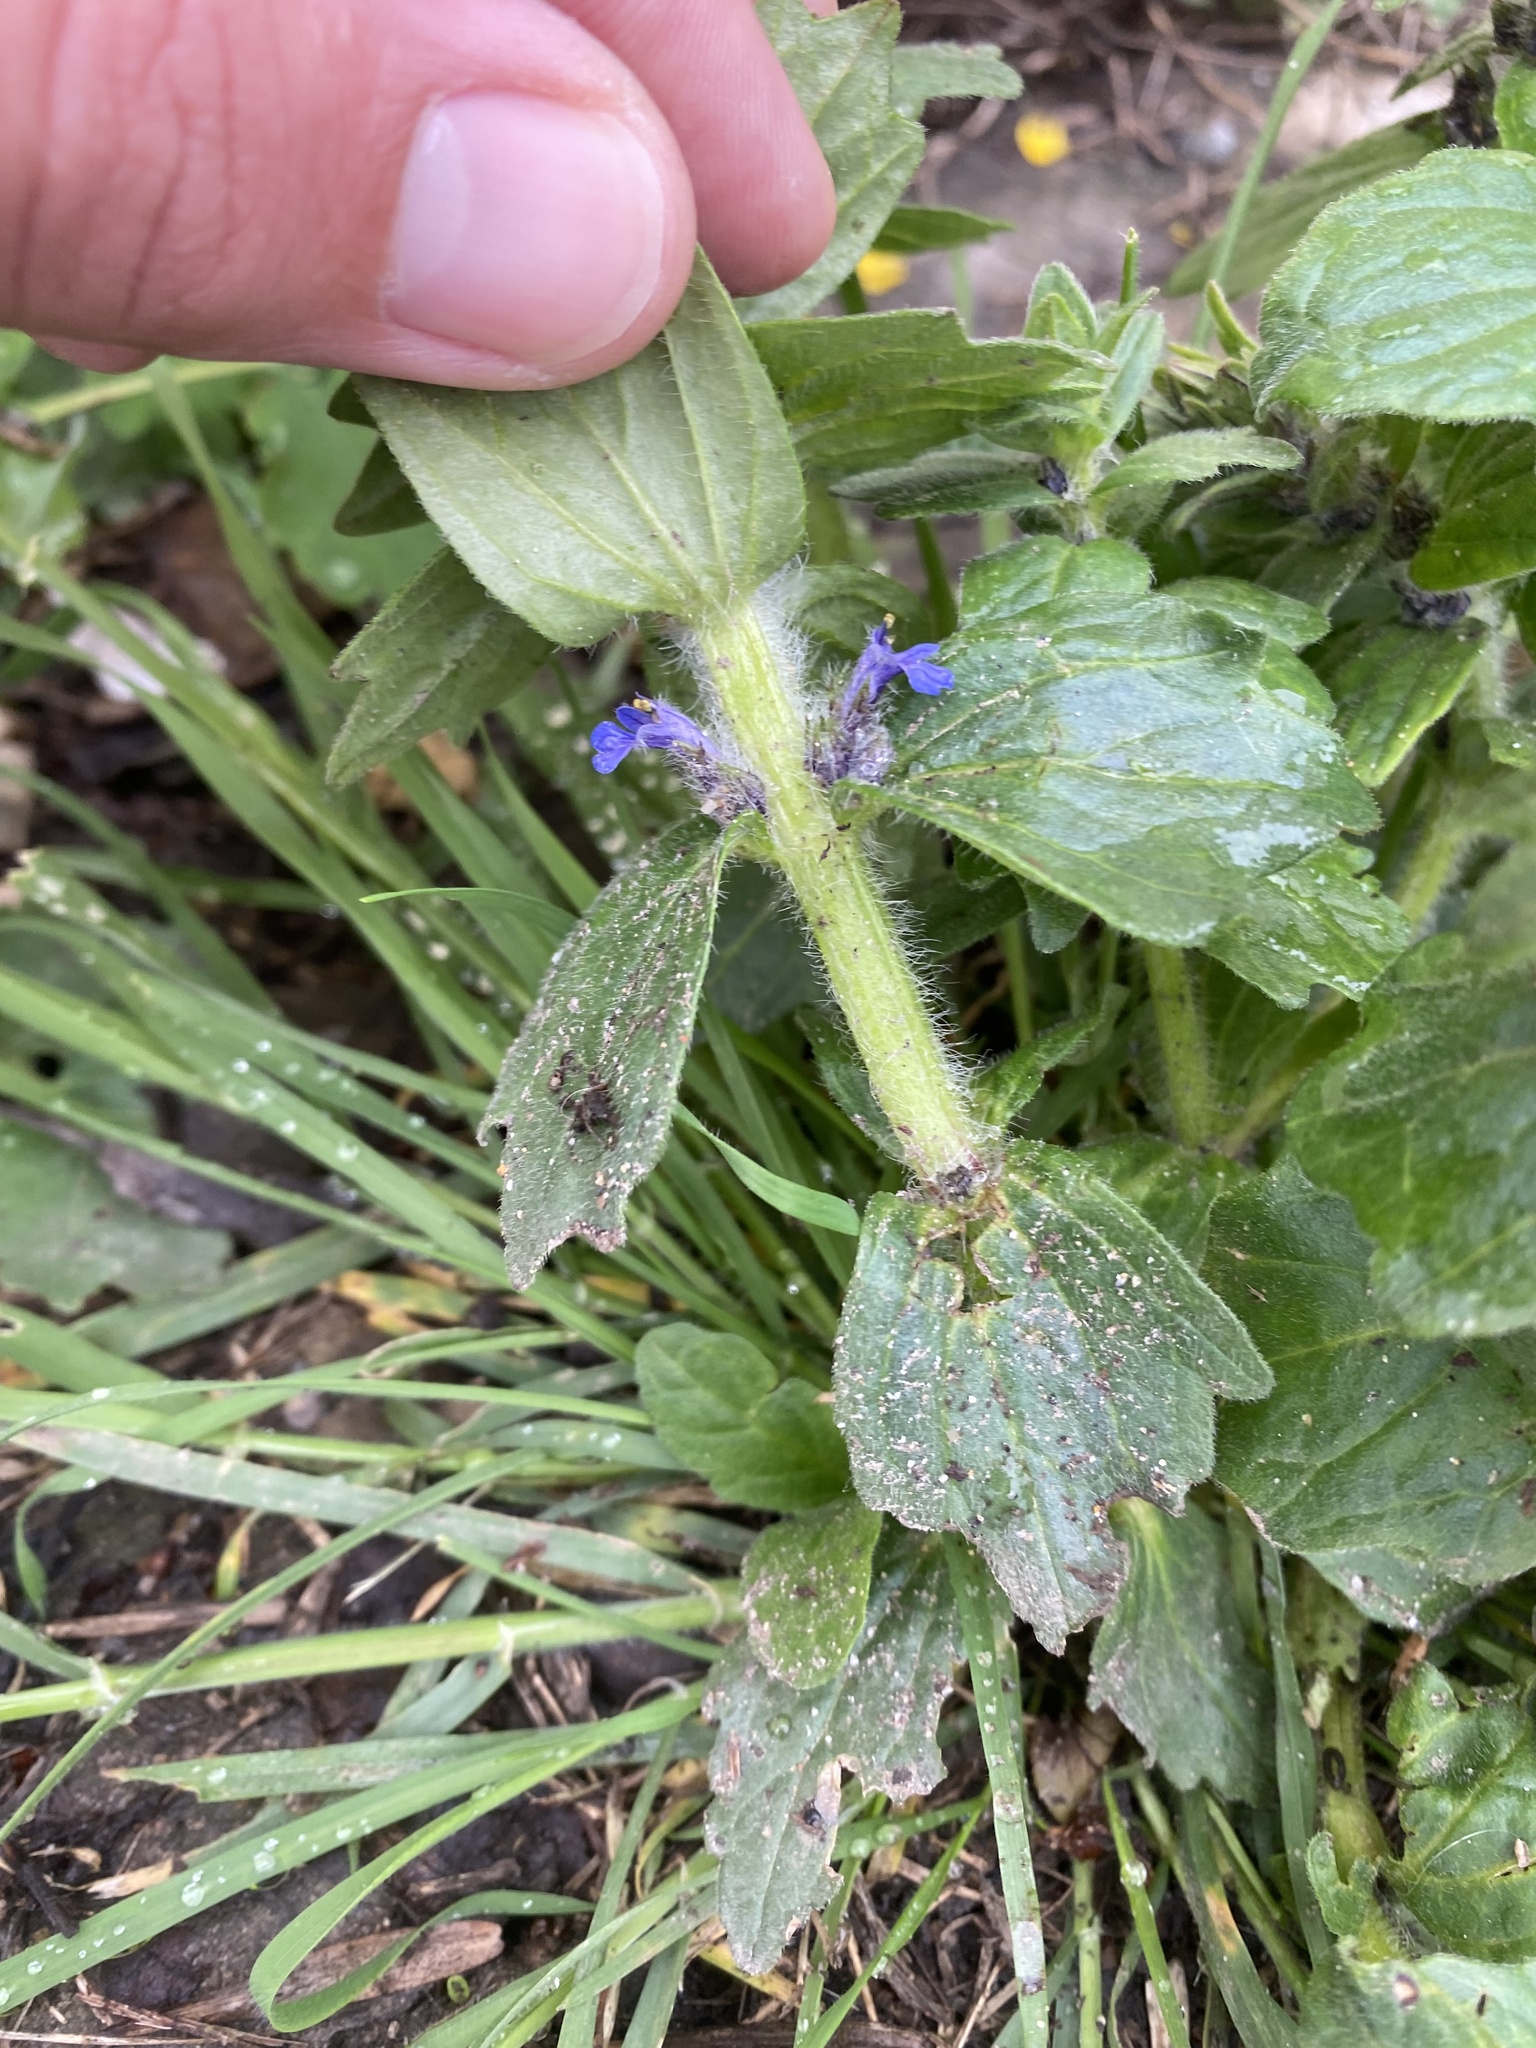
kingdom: Plantae
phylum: Tracheophyta
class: Magnoliopsida
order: Lamiales
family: Lamiaceae
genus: Ajuga
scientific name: Ajuga genevensis
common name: Blue bugle
